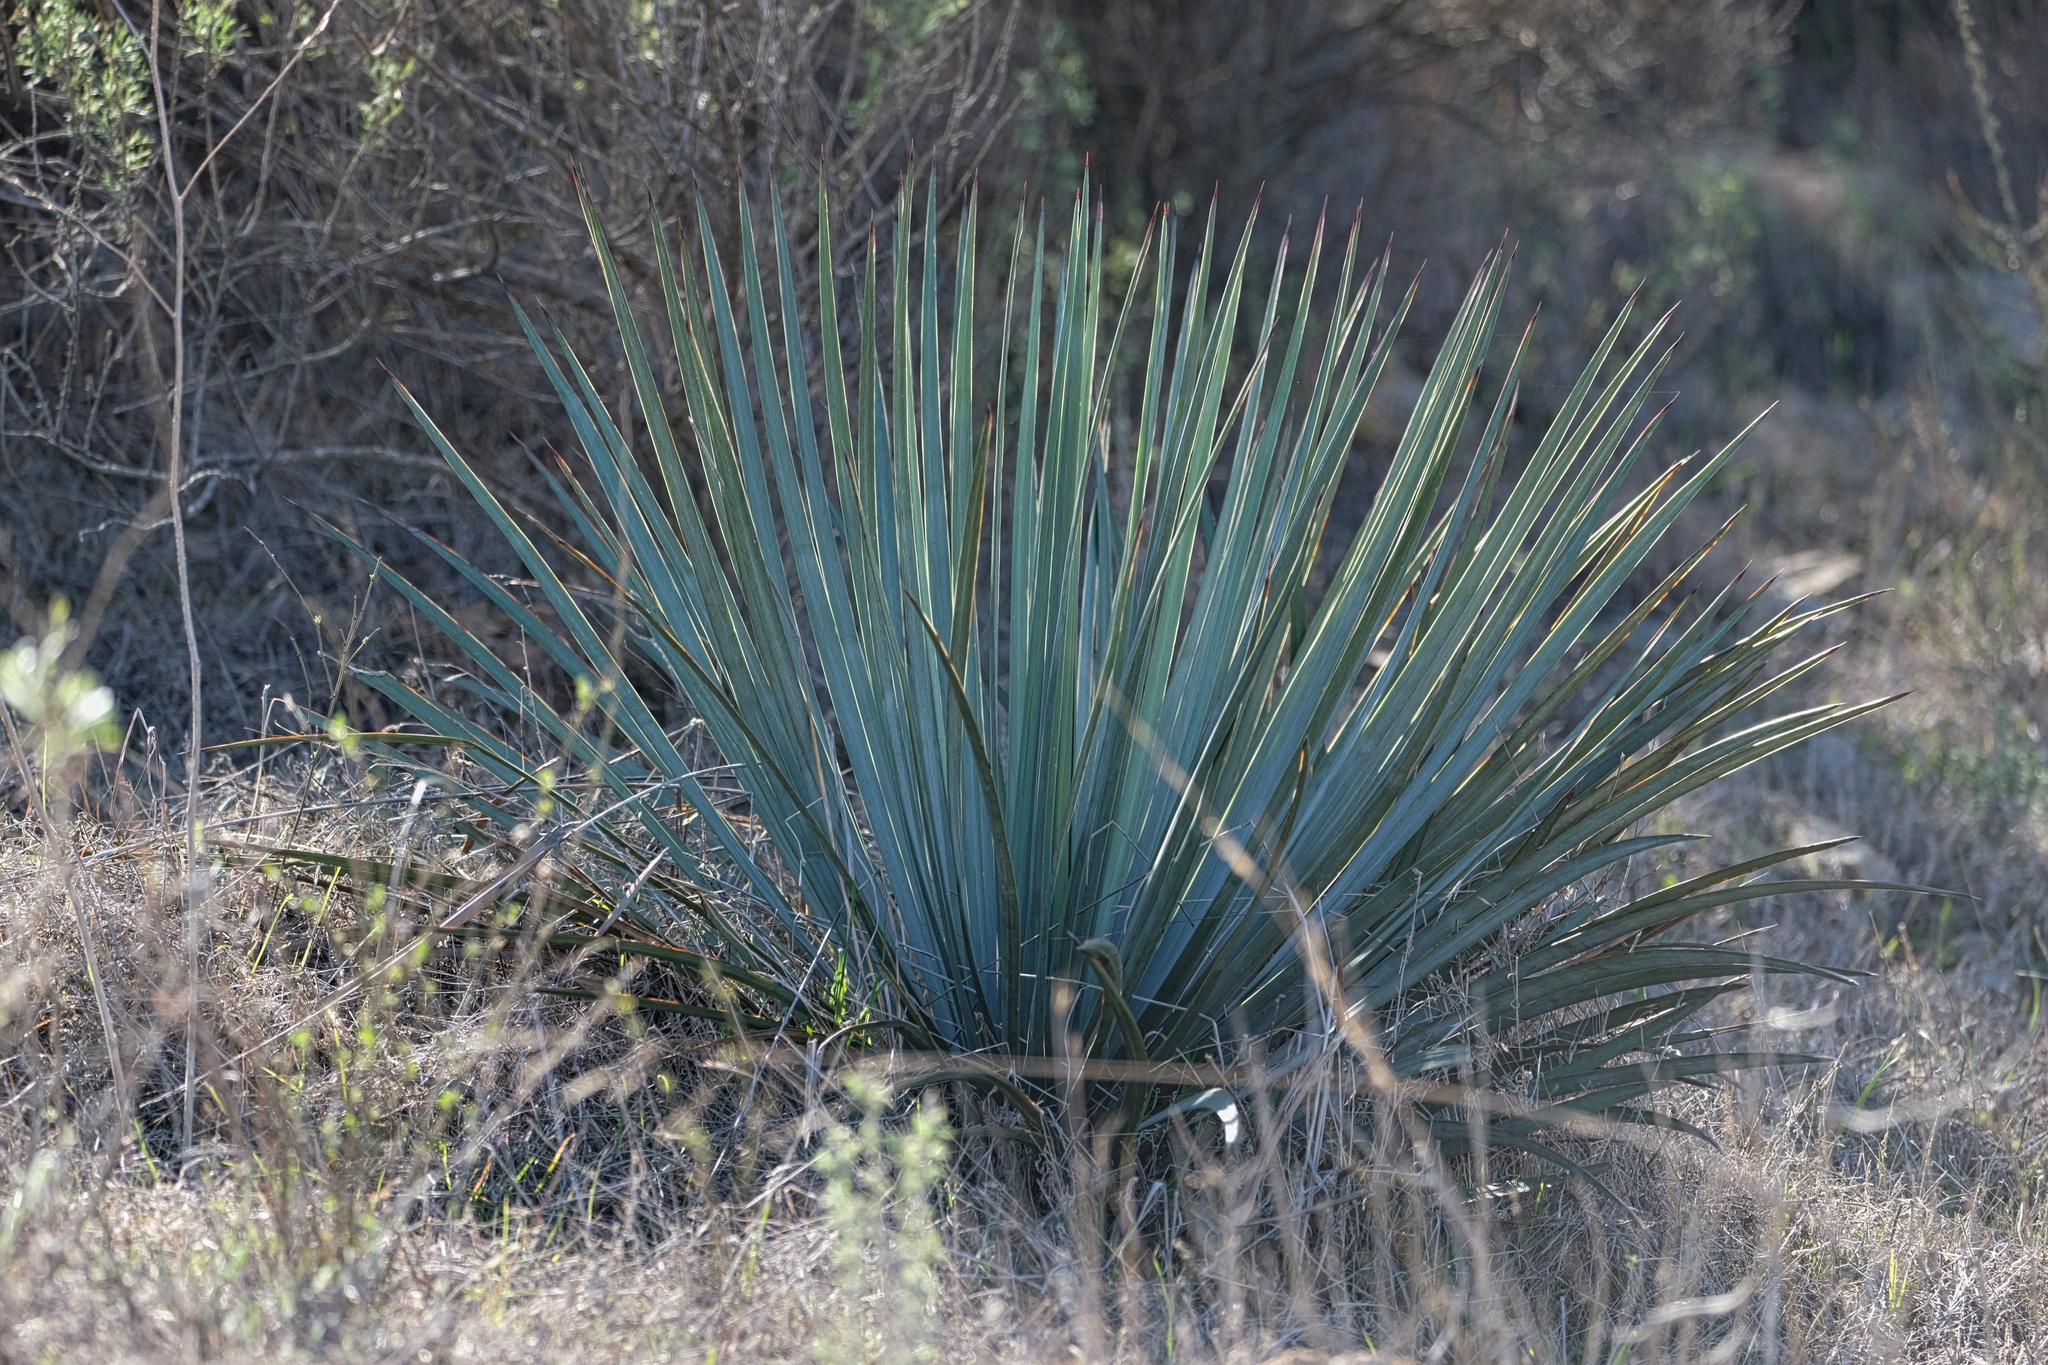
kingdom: Plantae
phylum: Tracheophyta
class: Liliopsida
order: Asparagales
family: Asparagaceae
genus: Hesperoyucca
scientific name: Hesperoyucca whipplei
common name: Our lord's-candle
